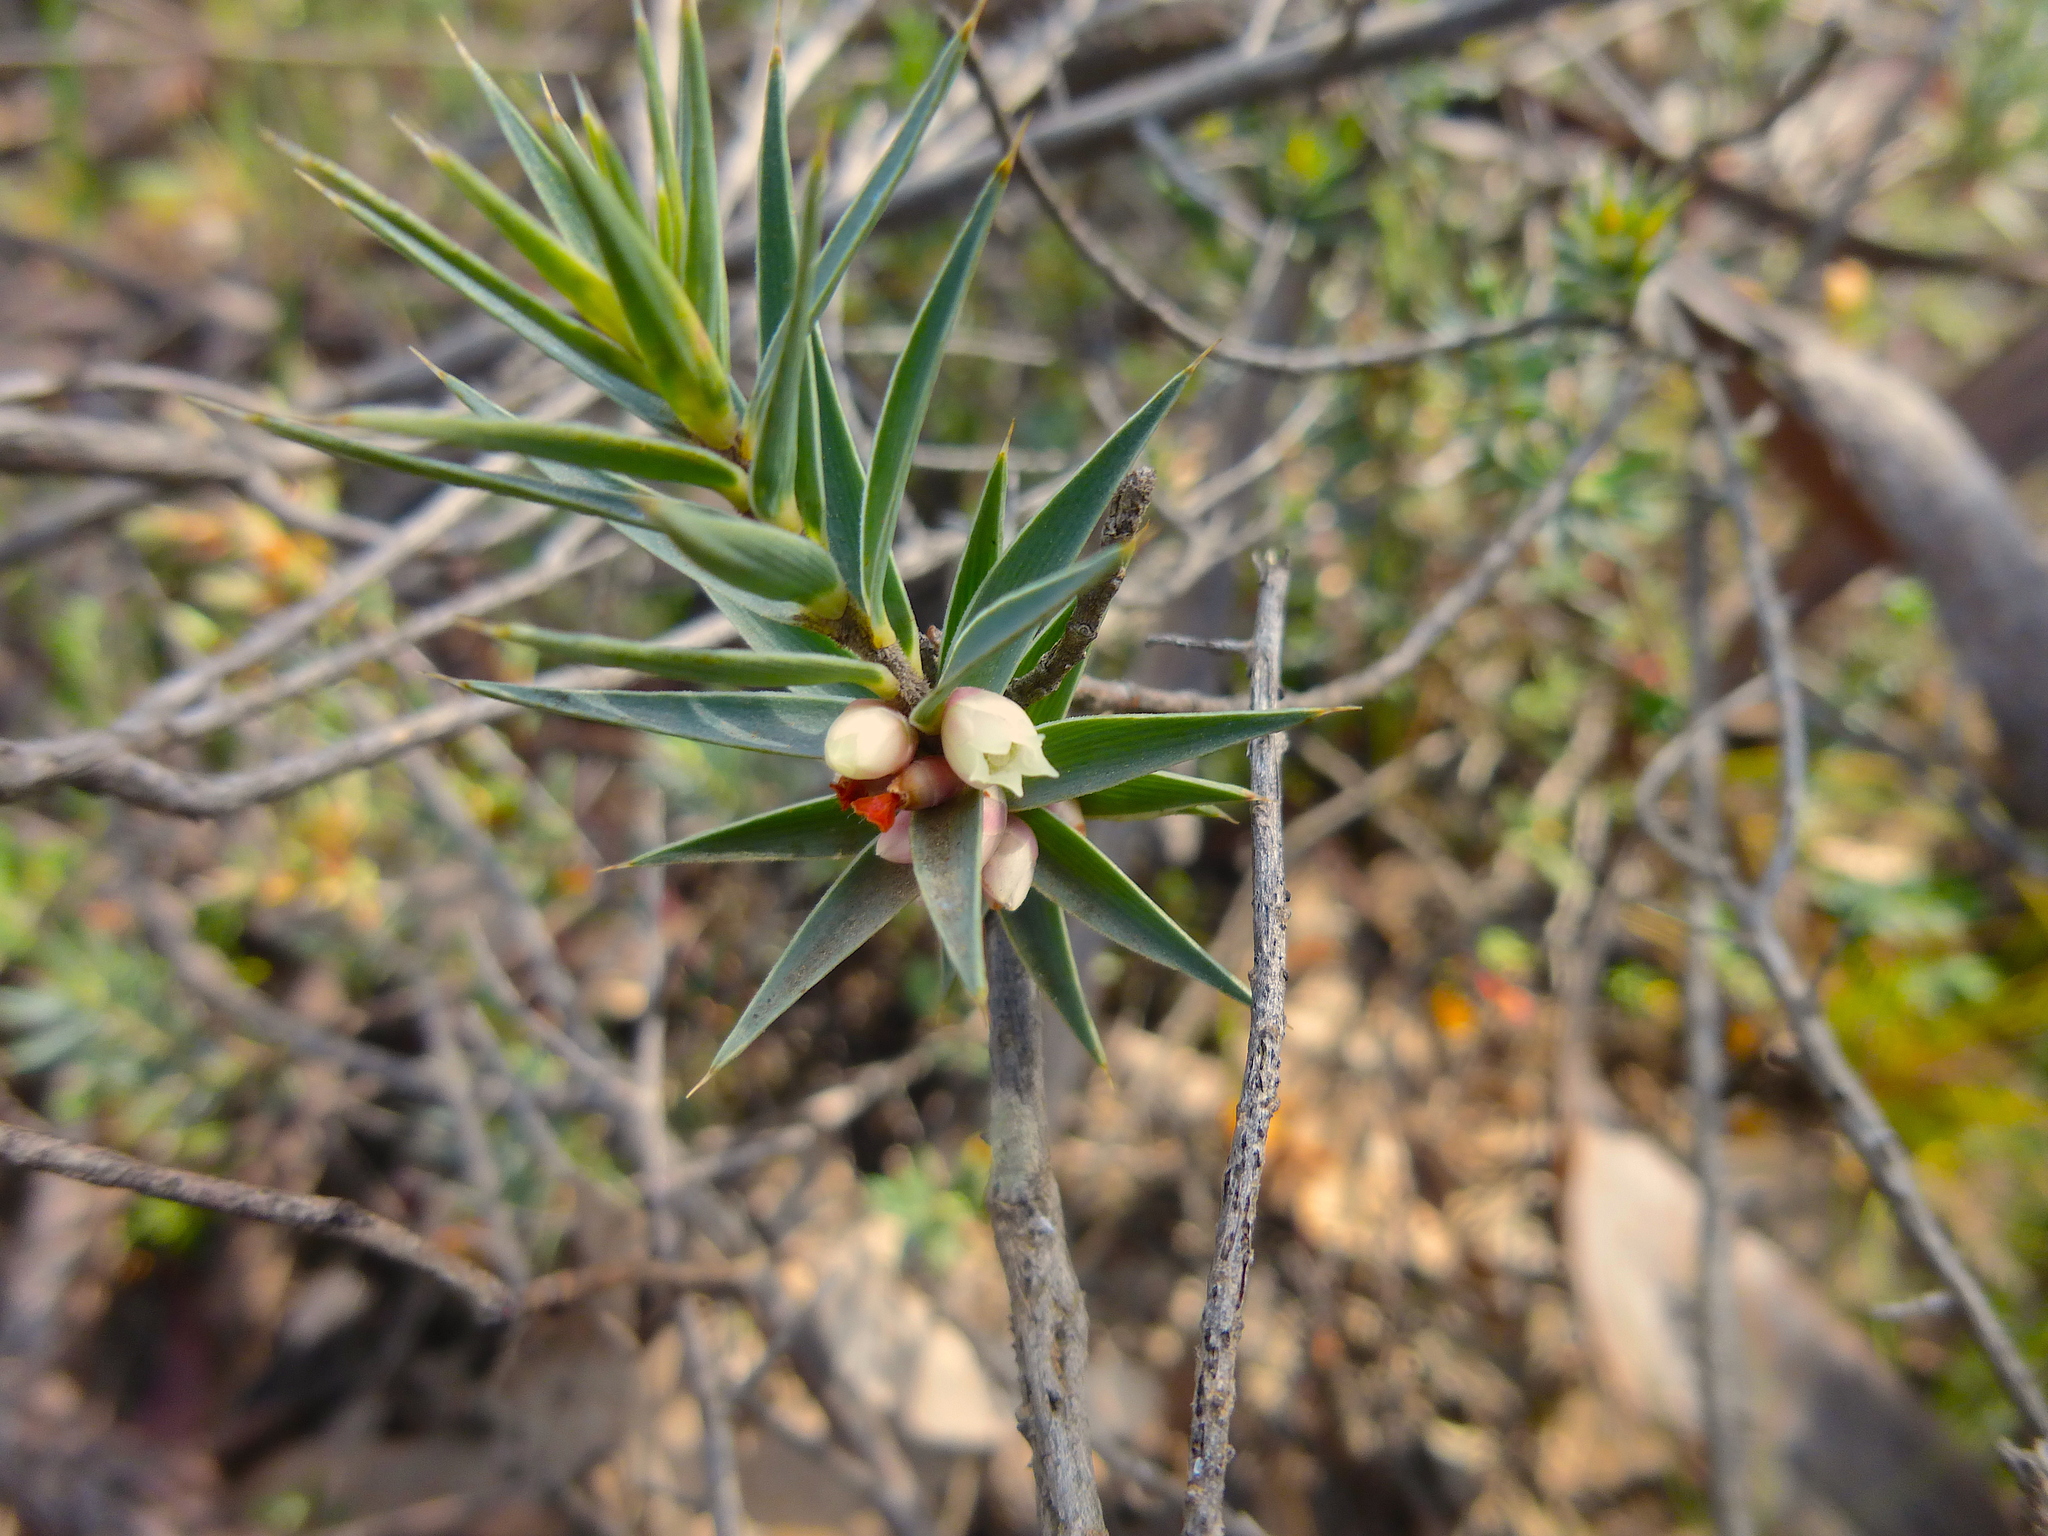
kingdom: Plantae
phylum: Tracheophyta
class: Magnoliopsida
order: Ericales
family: Ericaceae
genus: Melichrus
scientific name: Melichrus urceolatus
